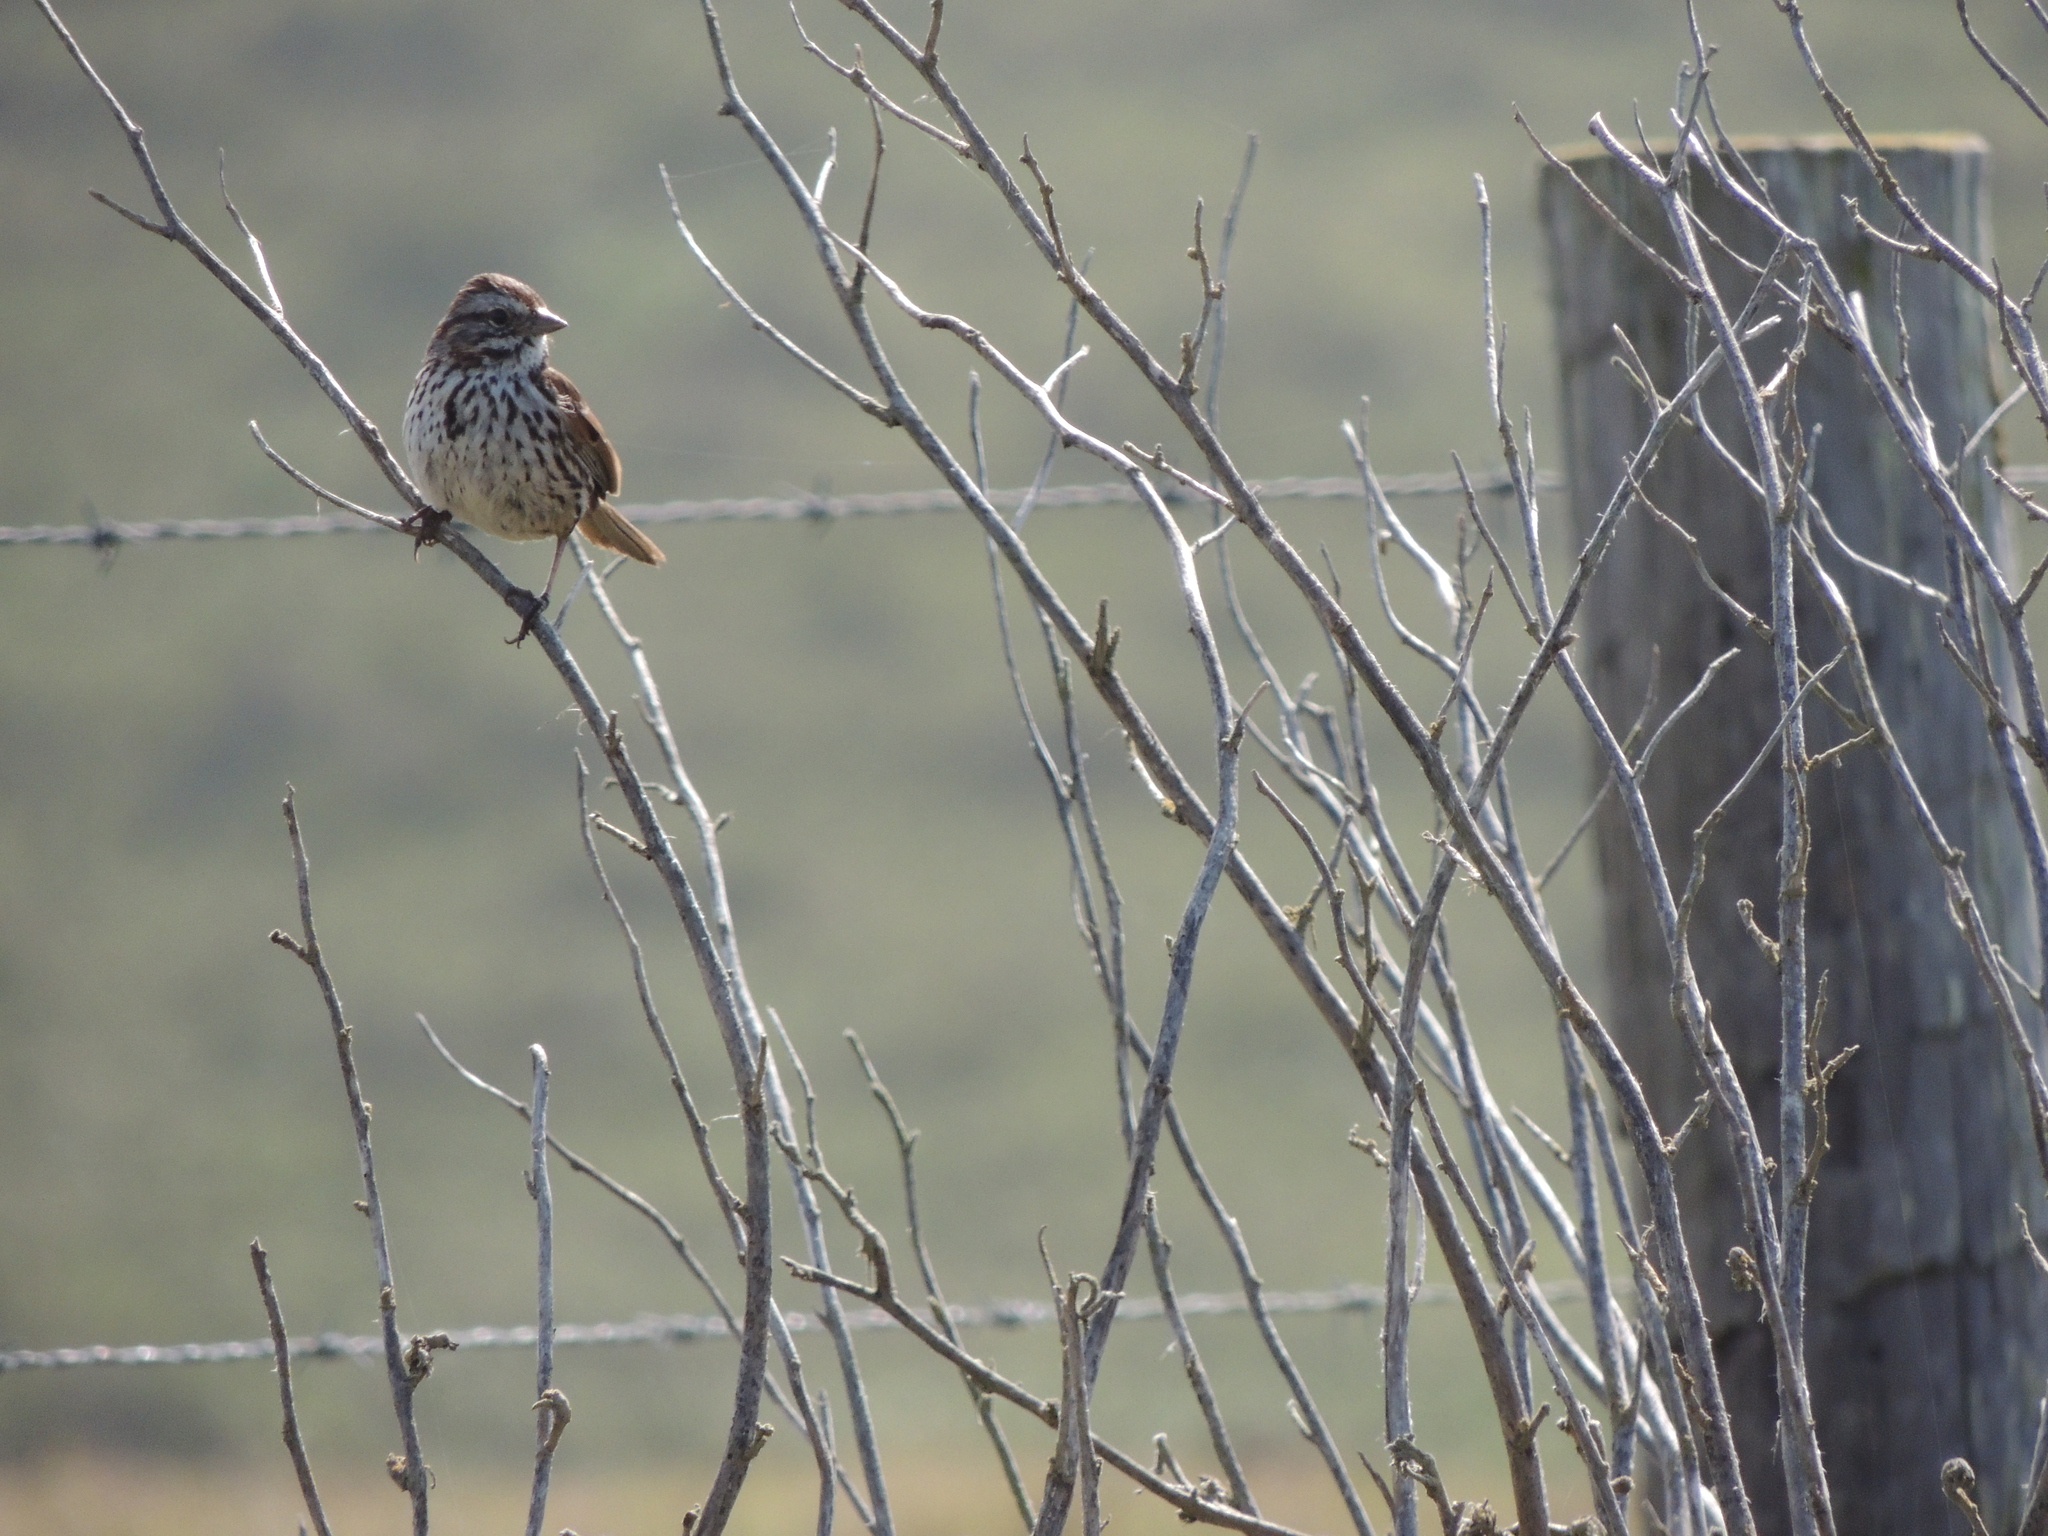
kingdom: Animalia
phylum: Chordata
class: Aves
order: Passeriformes
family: Passerellidae
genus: Melospiza
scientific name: Melospiza melodia
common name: Song sparrow
